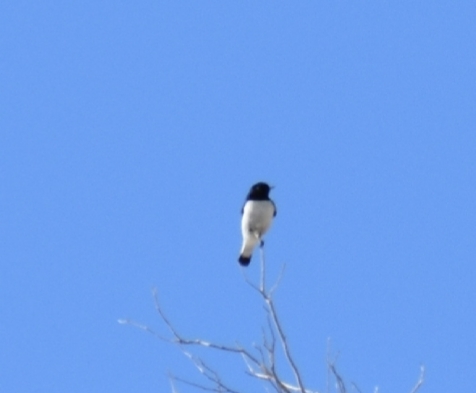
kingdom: Animalia
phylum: Chordata
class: Aves
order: Passeriformes
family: Muscicapidae
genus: Oenanthe
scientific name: Oenanthe albonigra
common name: Hume's wheatear
